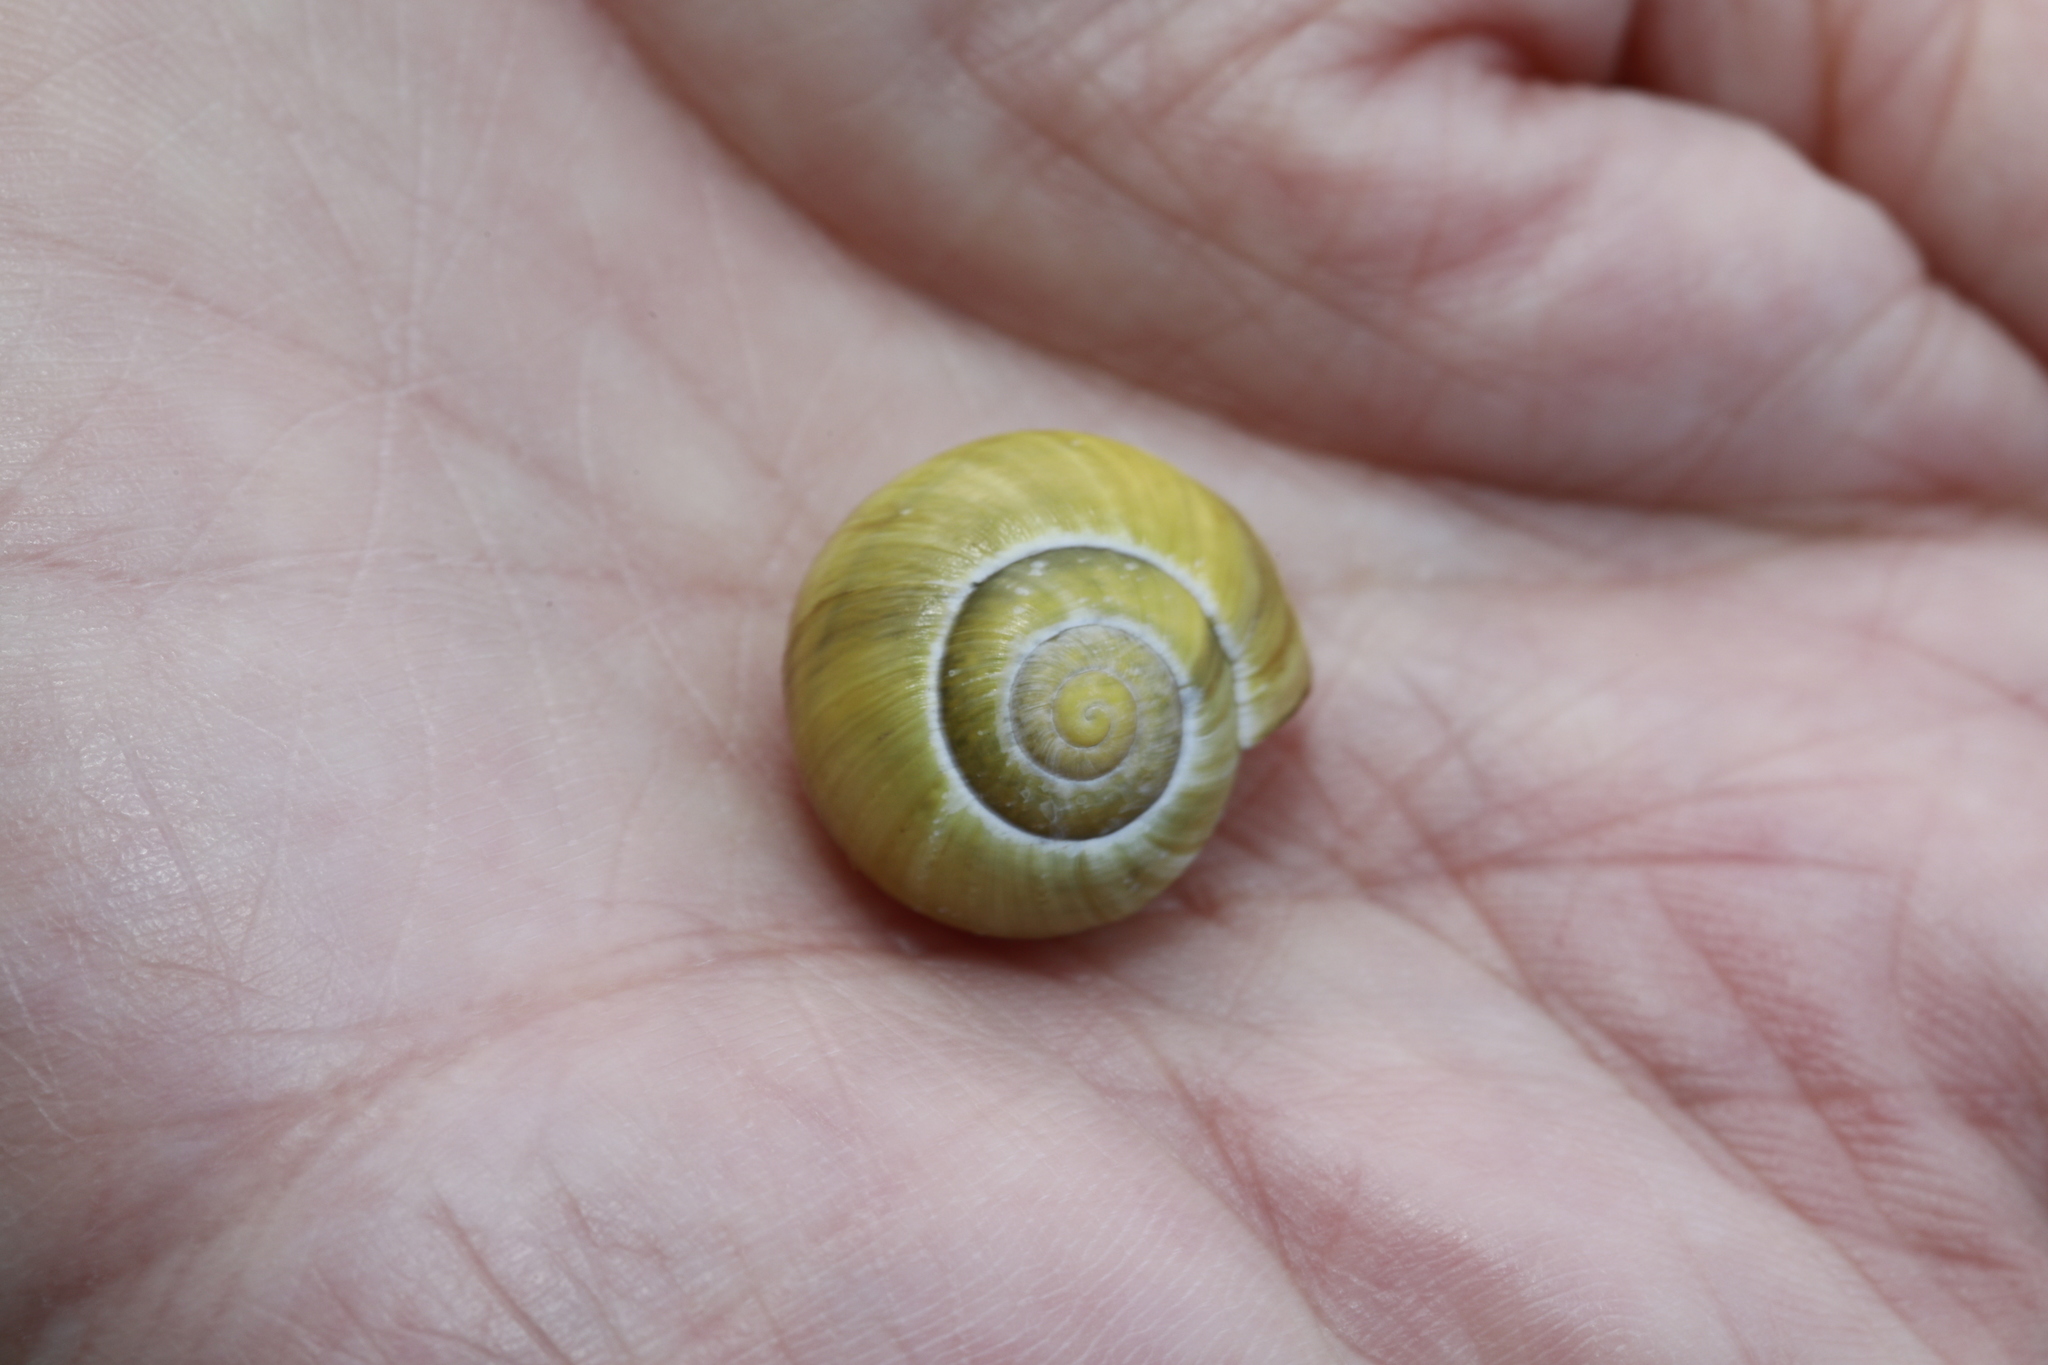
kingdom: Animalia
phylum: Mollusca
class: Gastropoda
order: Stylommatophora
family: Helicidae
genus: Cepaea
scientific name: Cepaea hortensis
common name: White-lip gardensnail
